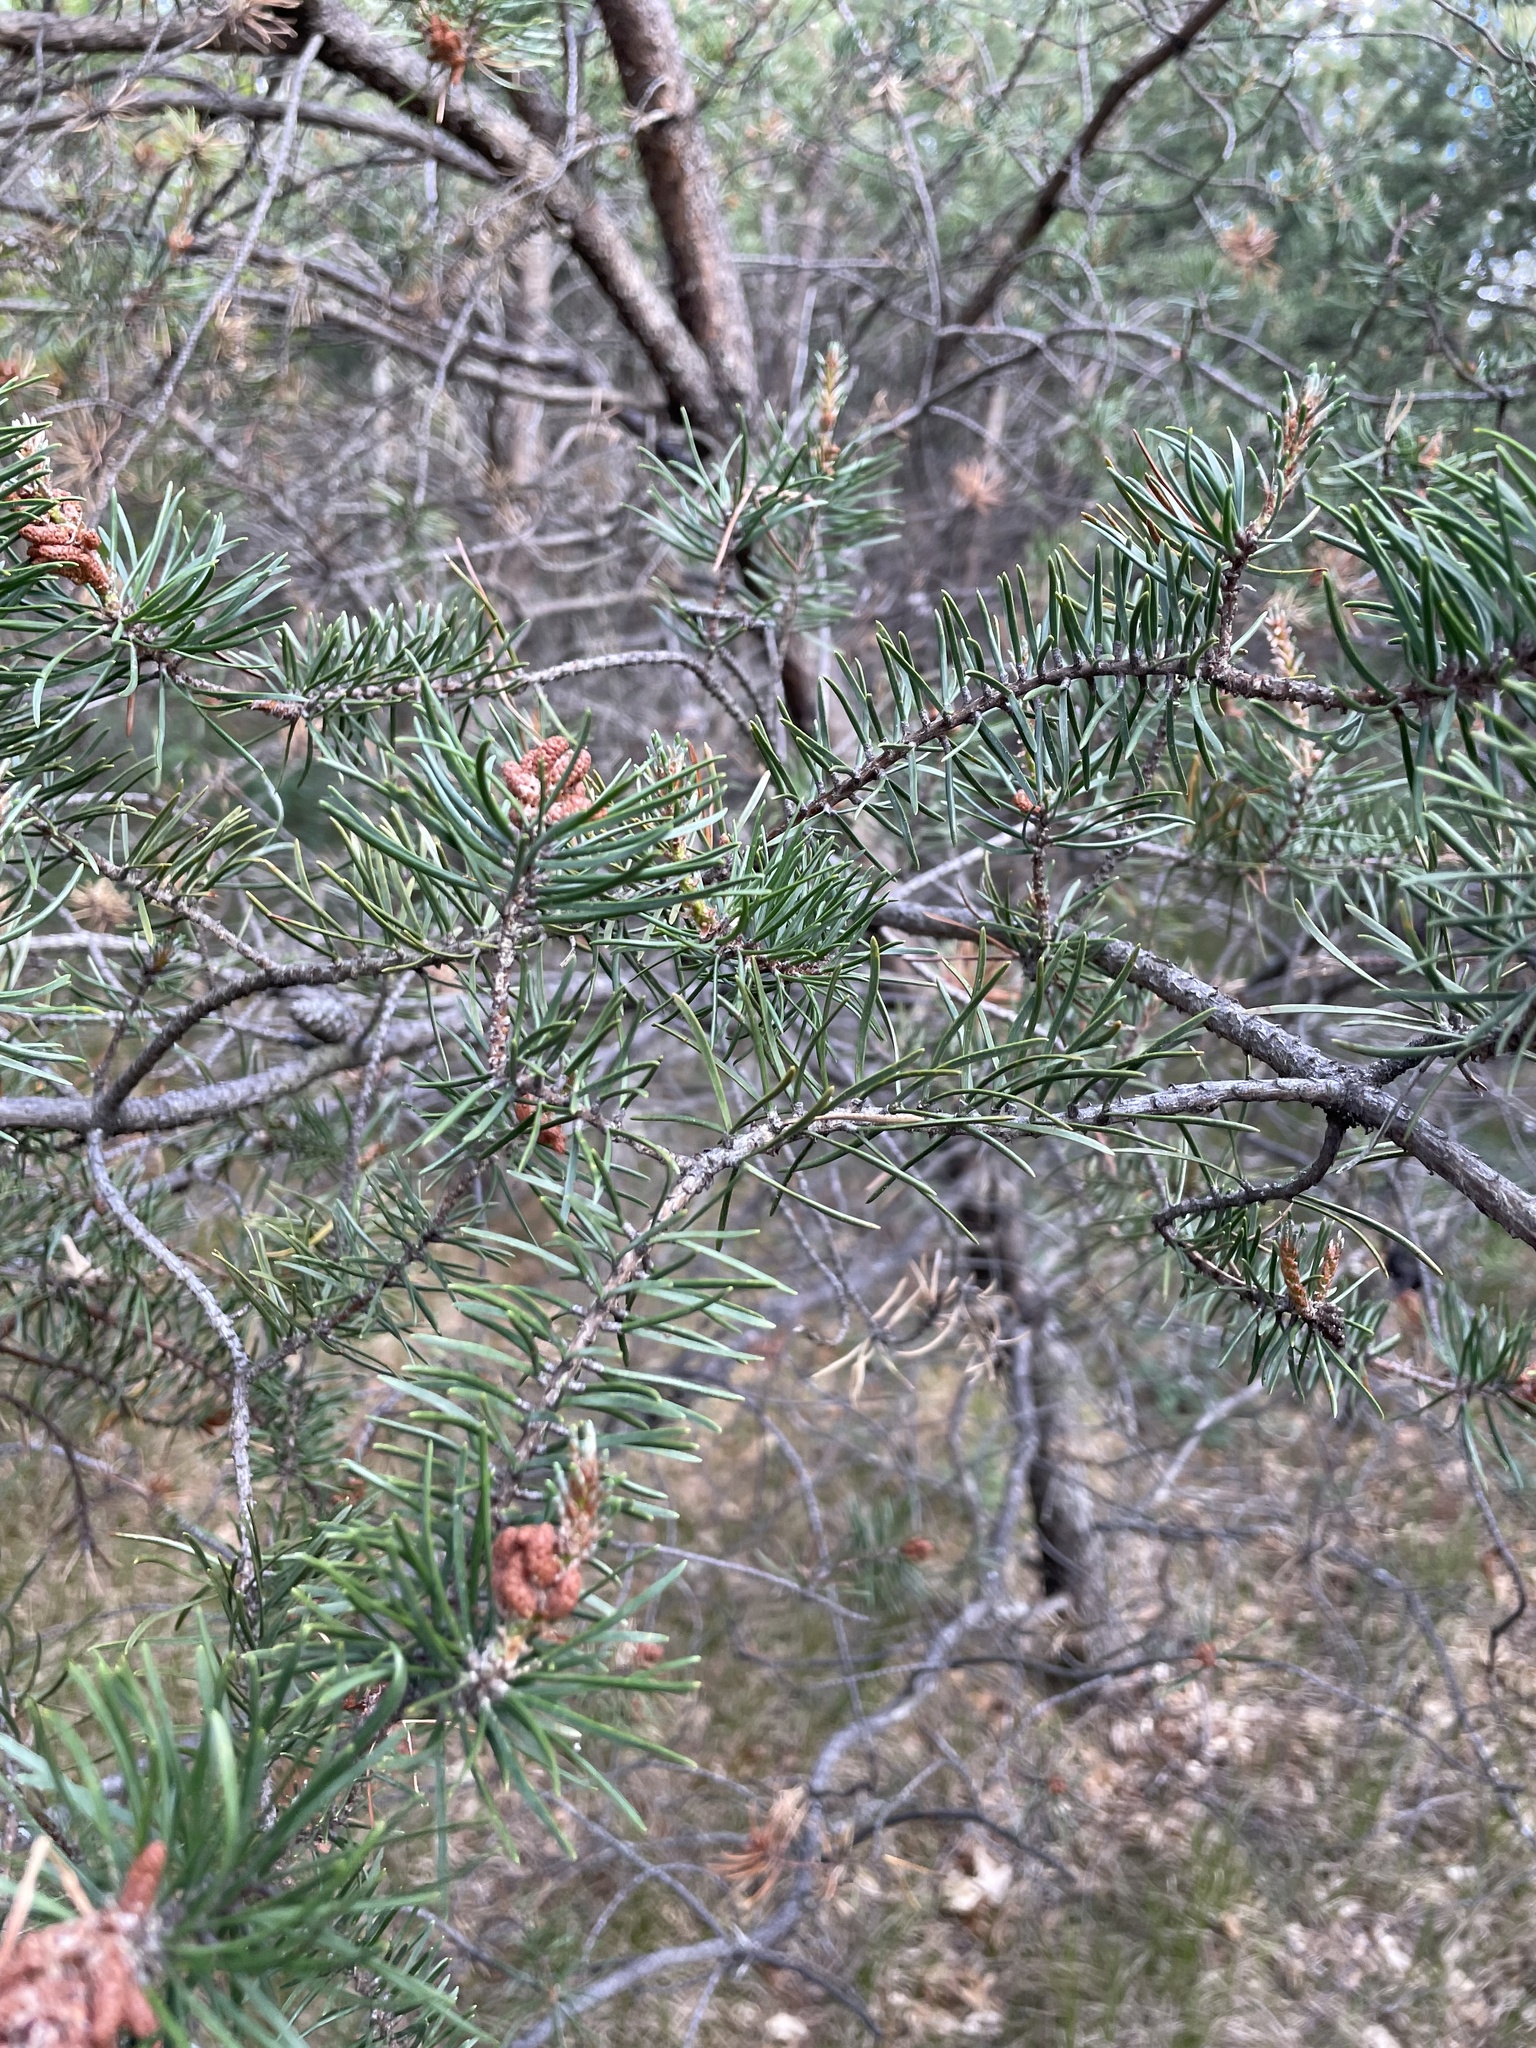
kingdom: Plantae
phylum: Tracheophyta
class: Pinopsida
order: Pinales
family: Pinaceae
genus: Pinus
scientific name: Pinus banksiana
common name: Jack pine
